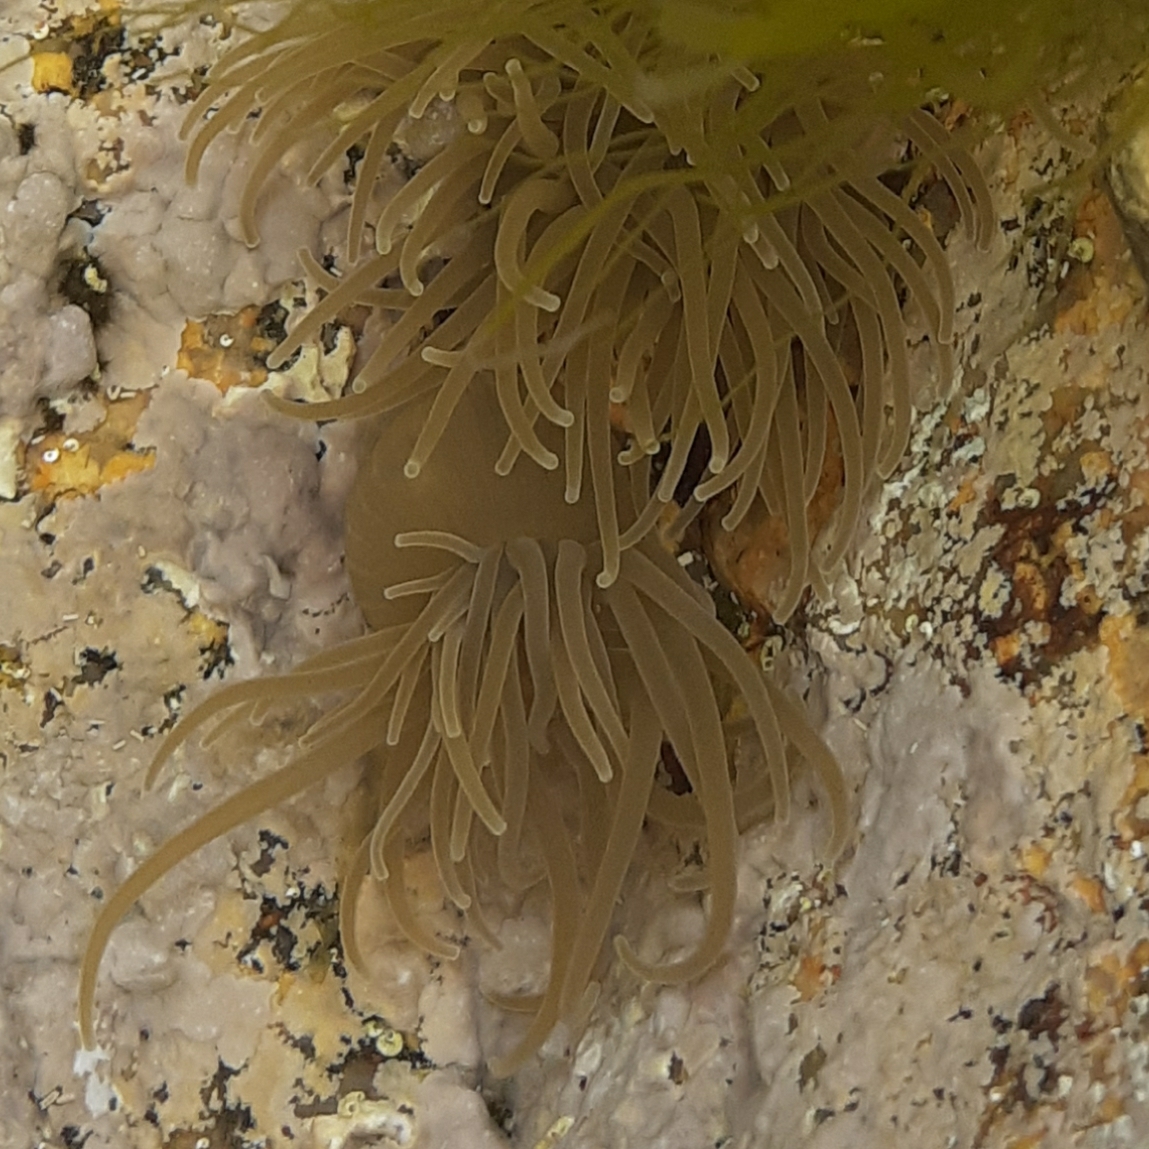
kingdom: Animalia
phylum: Cnidaria
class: Anthozoa
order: Actiniaria
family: Actiniidae
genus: Anemonia
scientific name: Anemonia viridis
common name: Snakelocks anemone
